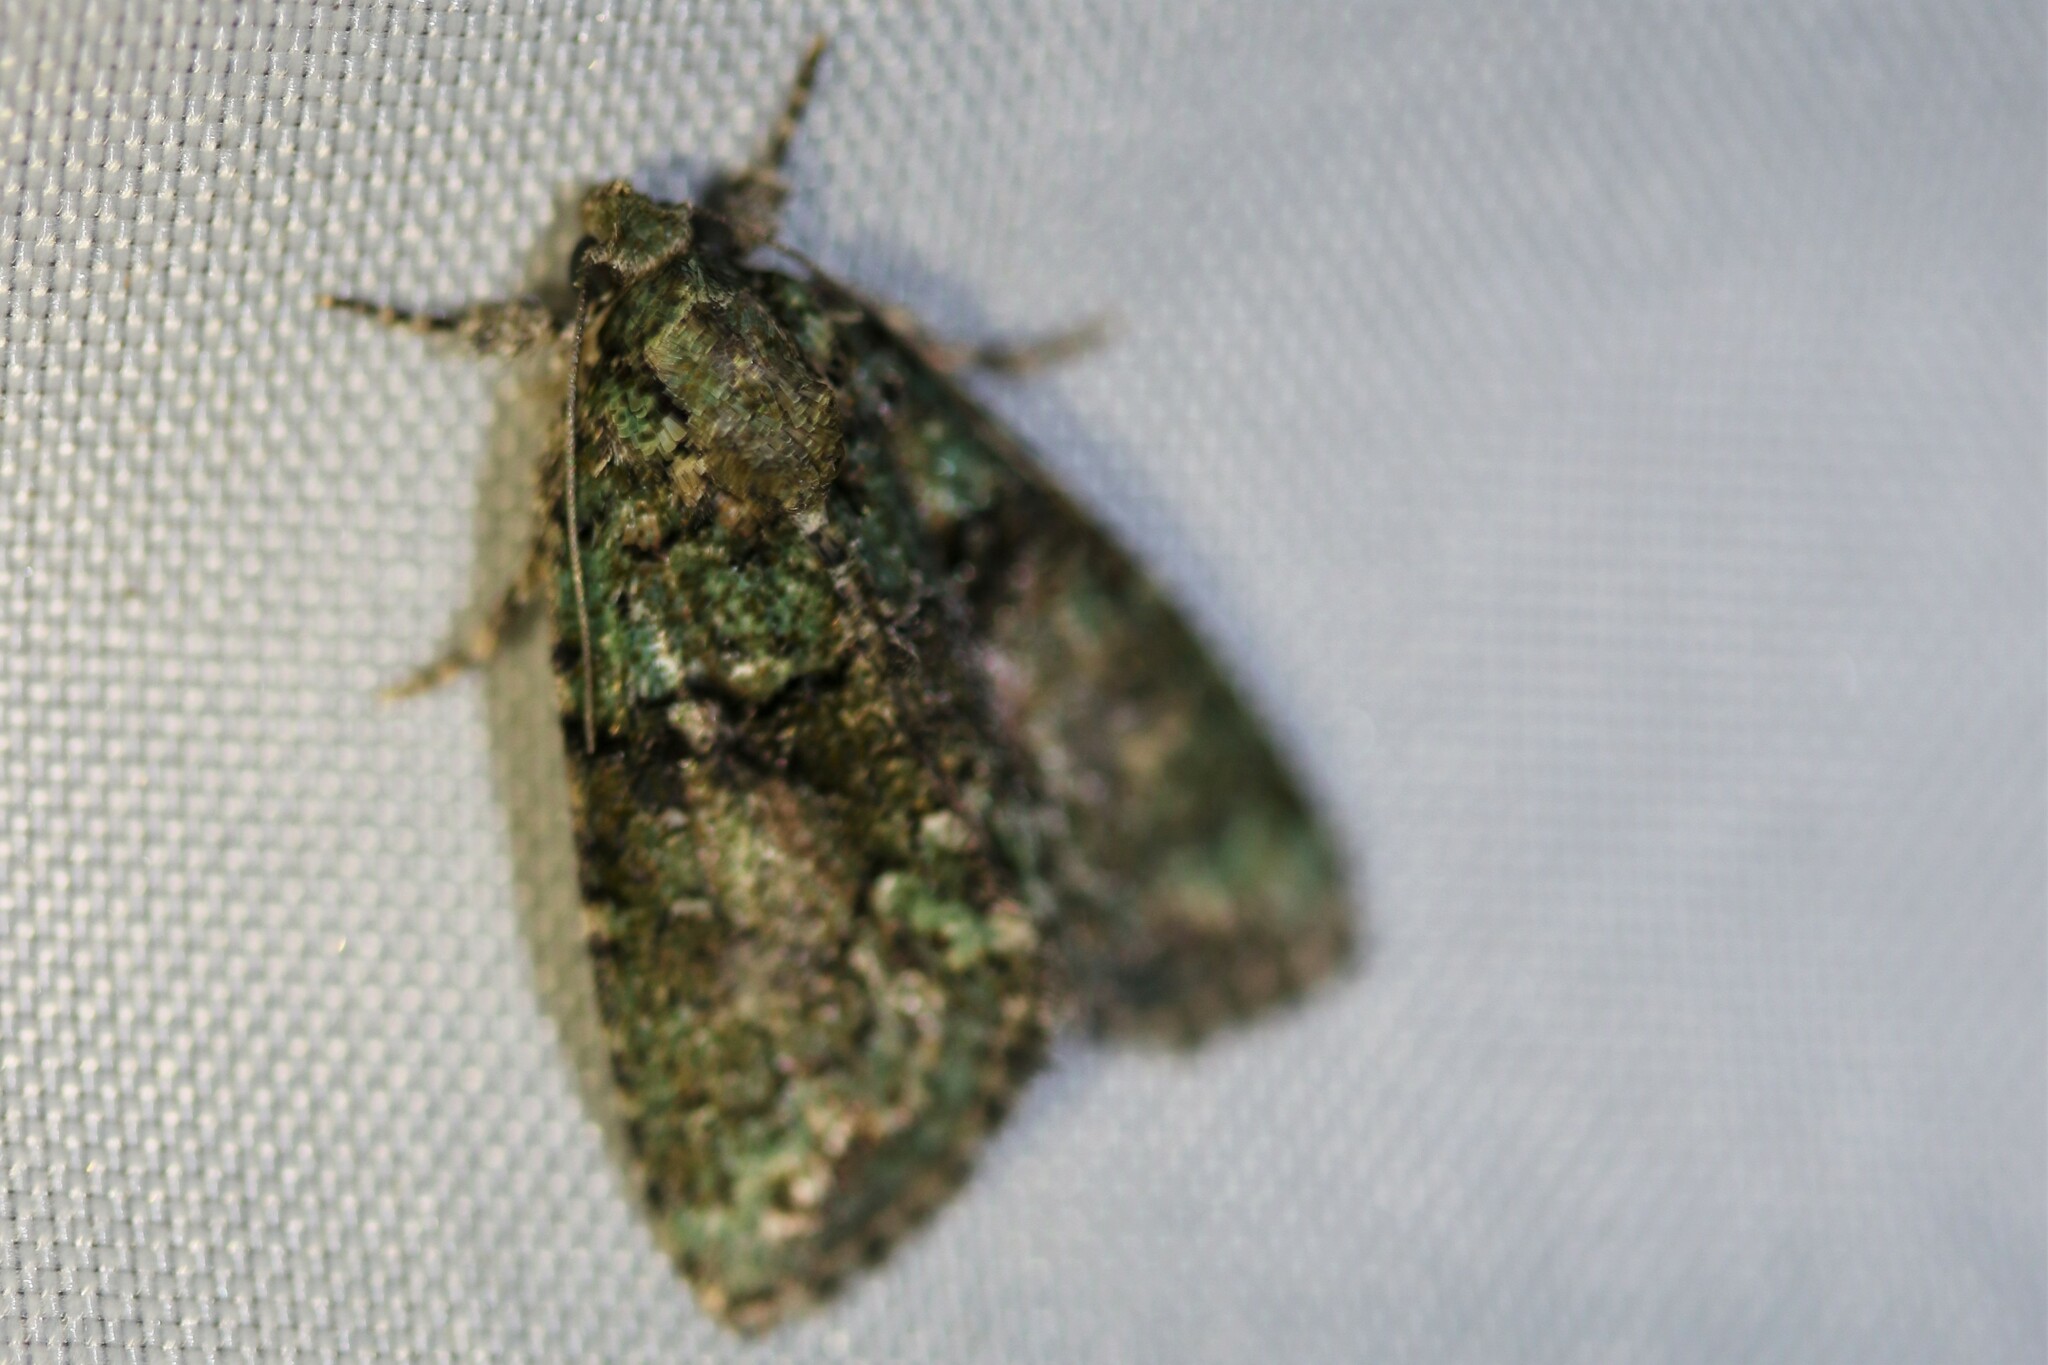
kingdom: Animalia
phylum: Arthropoda
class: Insecta
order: Lepidoptera
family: Noctuidae
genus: Cryphia
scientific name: Cryphia algae
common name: Tree-lichen beauty
